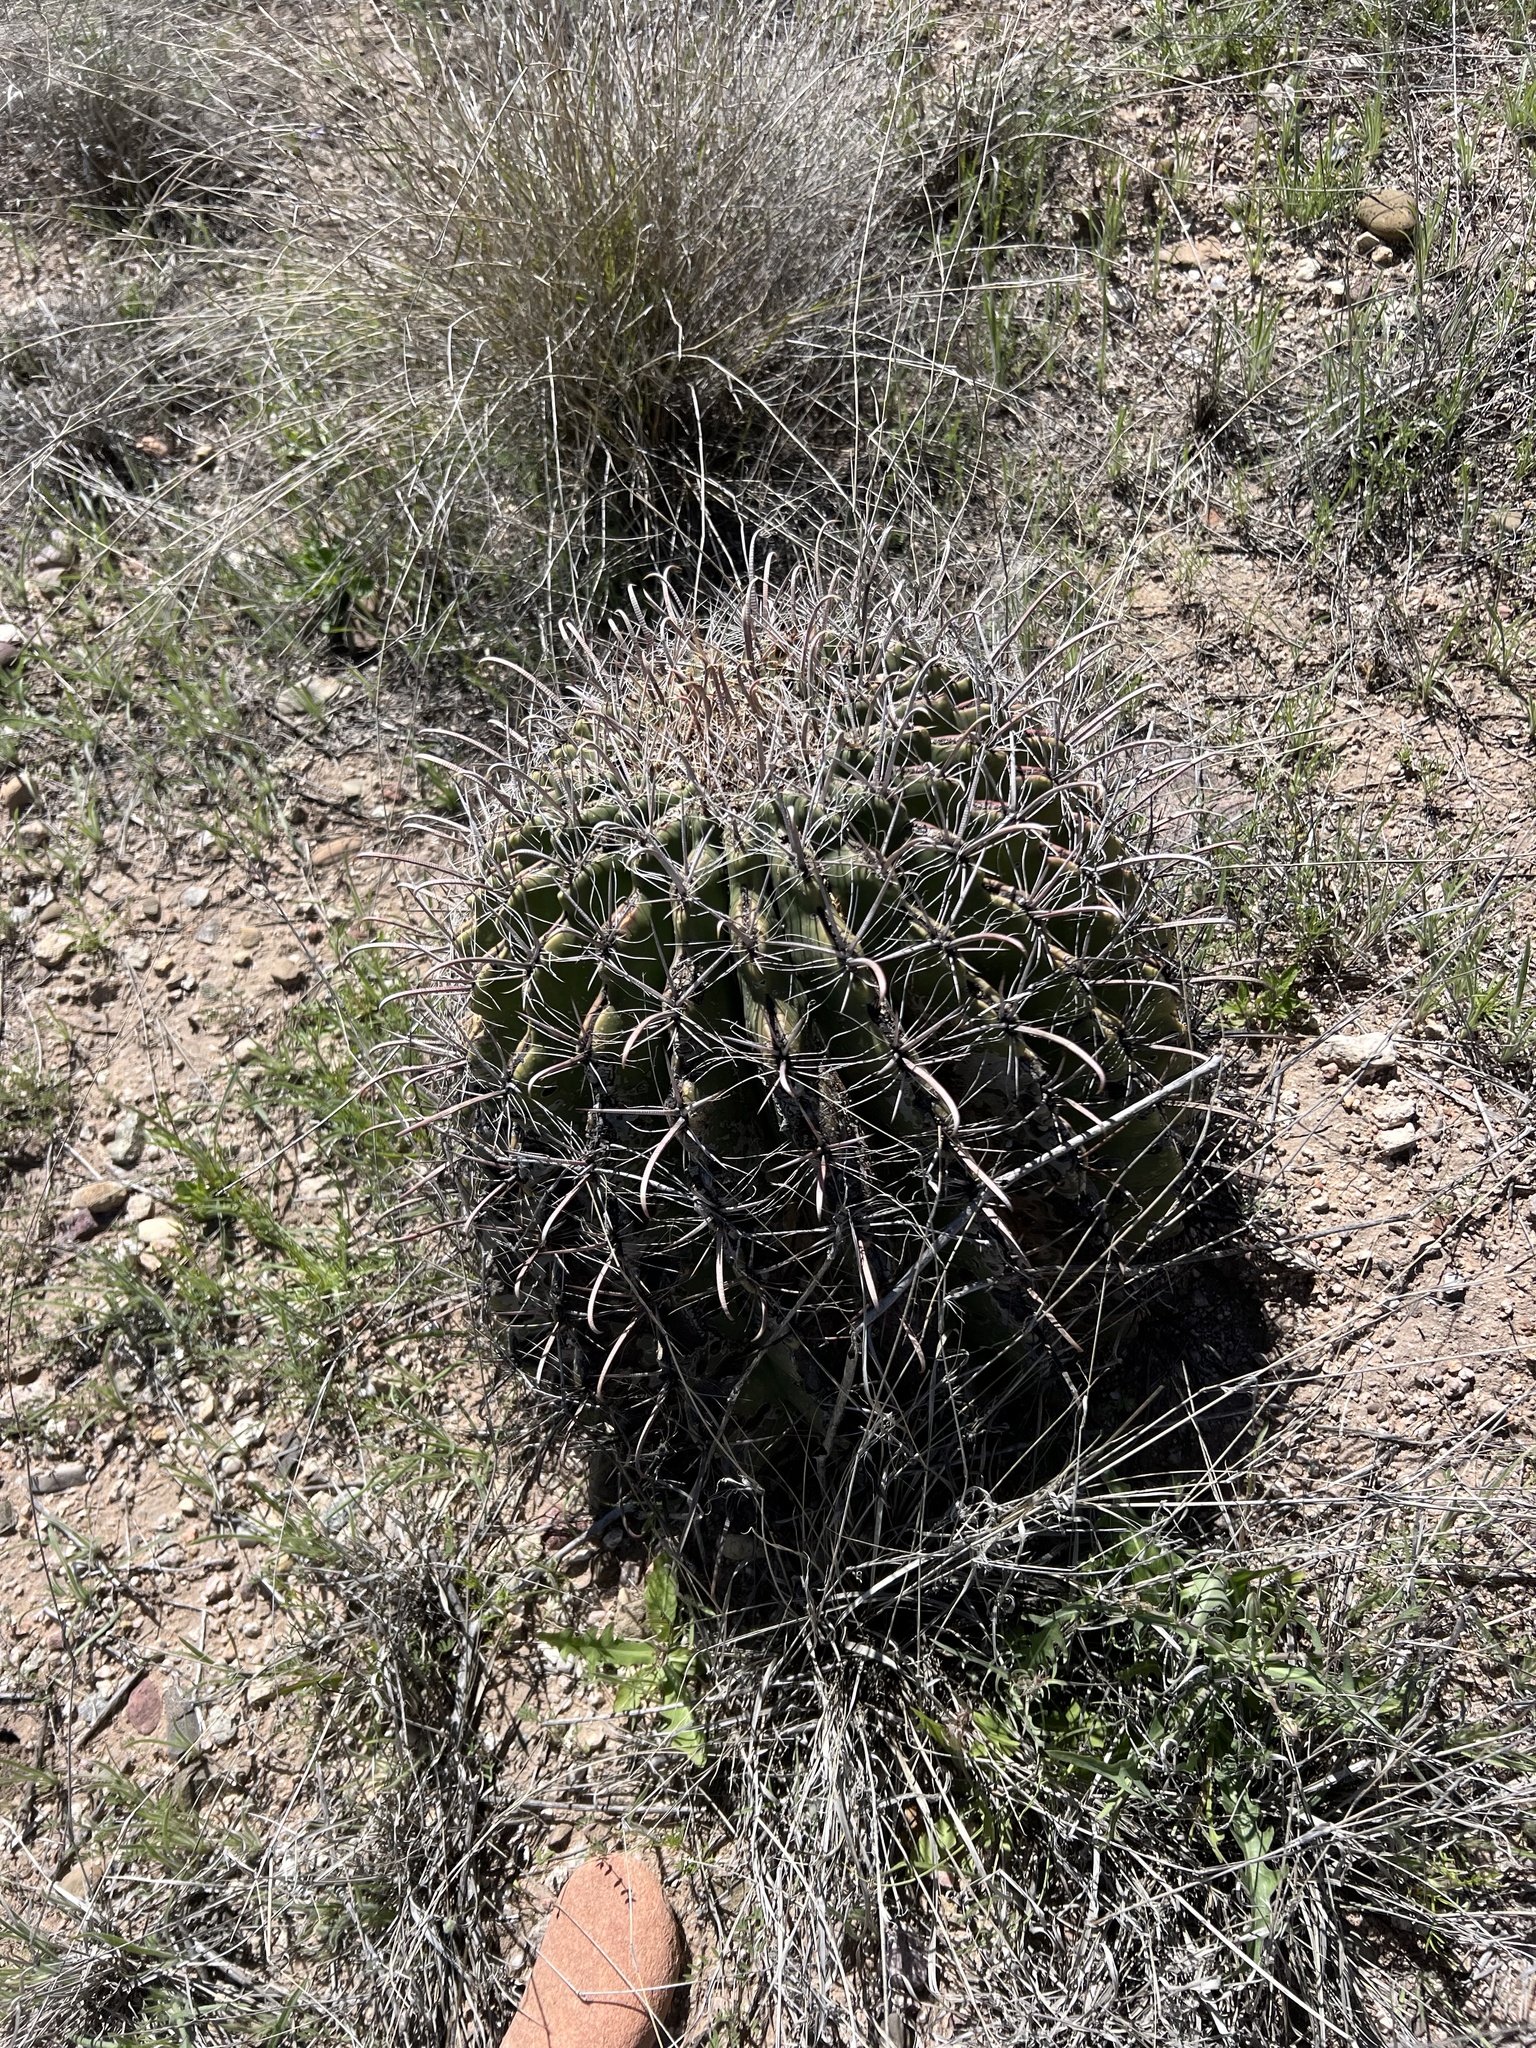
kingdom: Plantae
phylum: Tracheophyta
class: Magnoliopsida
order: Caryophyllales
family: Cactaceae
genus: Ferocactus
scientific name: Ferocactus wislizeni
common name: Candy barrel cactus
